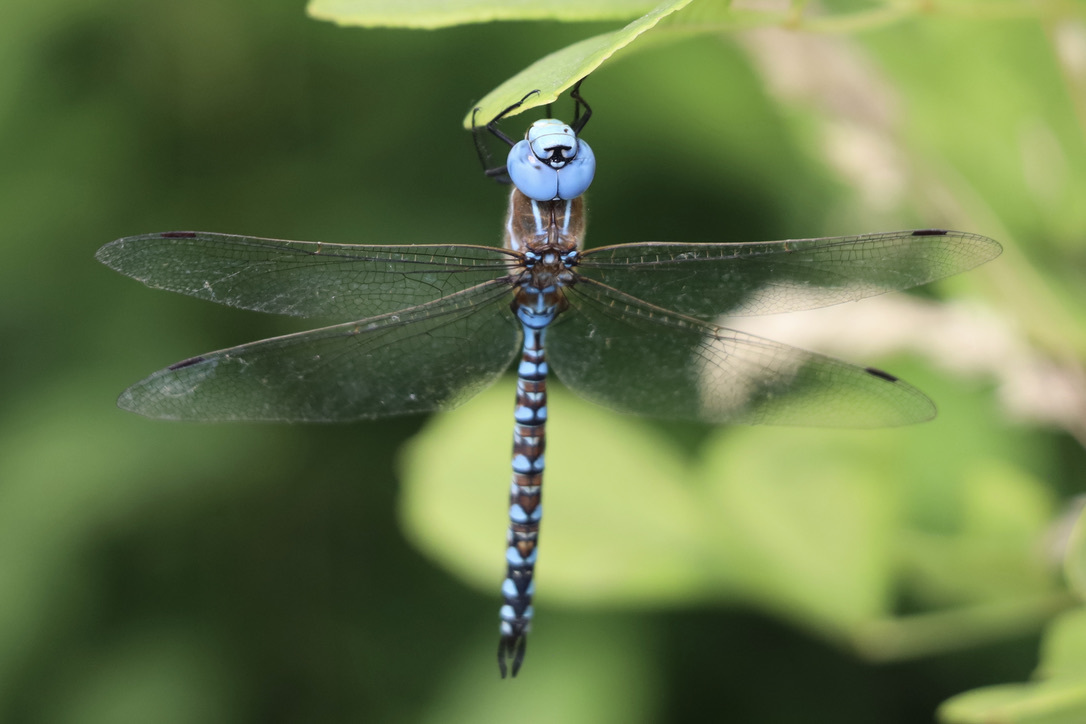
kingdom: Animalia
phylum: Arthropoda
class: Insecta
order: Odonata
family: Aeshnidae
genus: Rhionaeschna
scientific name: Rhionaeschna multicolor
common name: Blue-eyed darner
